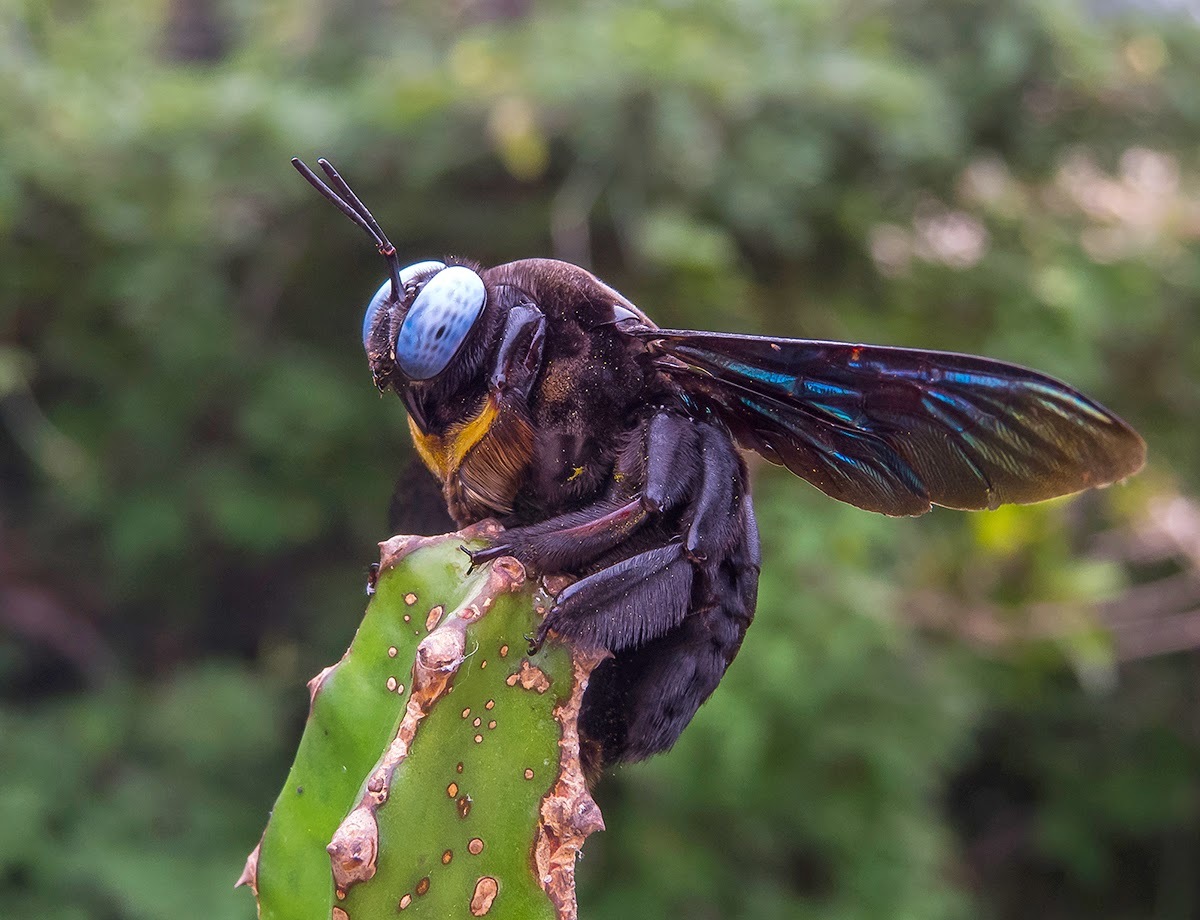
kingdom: Animalia
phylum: Arthropoda
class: Insecta
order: Hymenoptera
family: Apidae
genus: Xylocopa
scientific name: Xylocopa tenuiscapa
